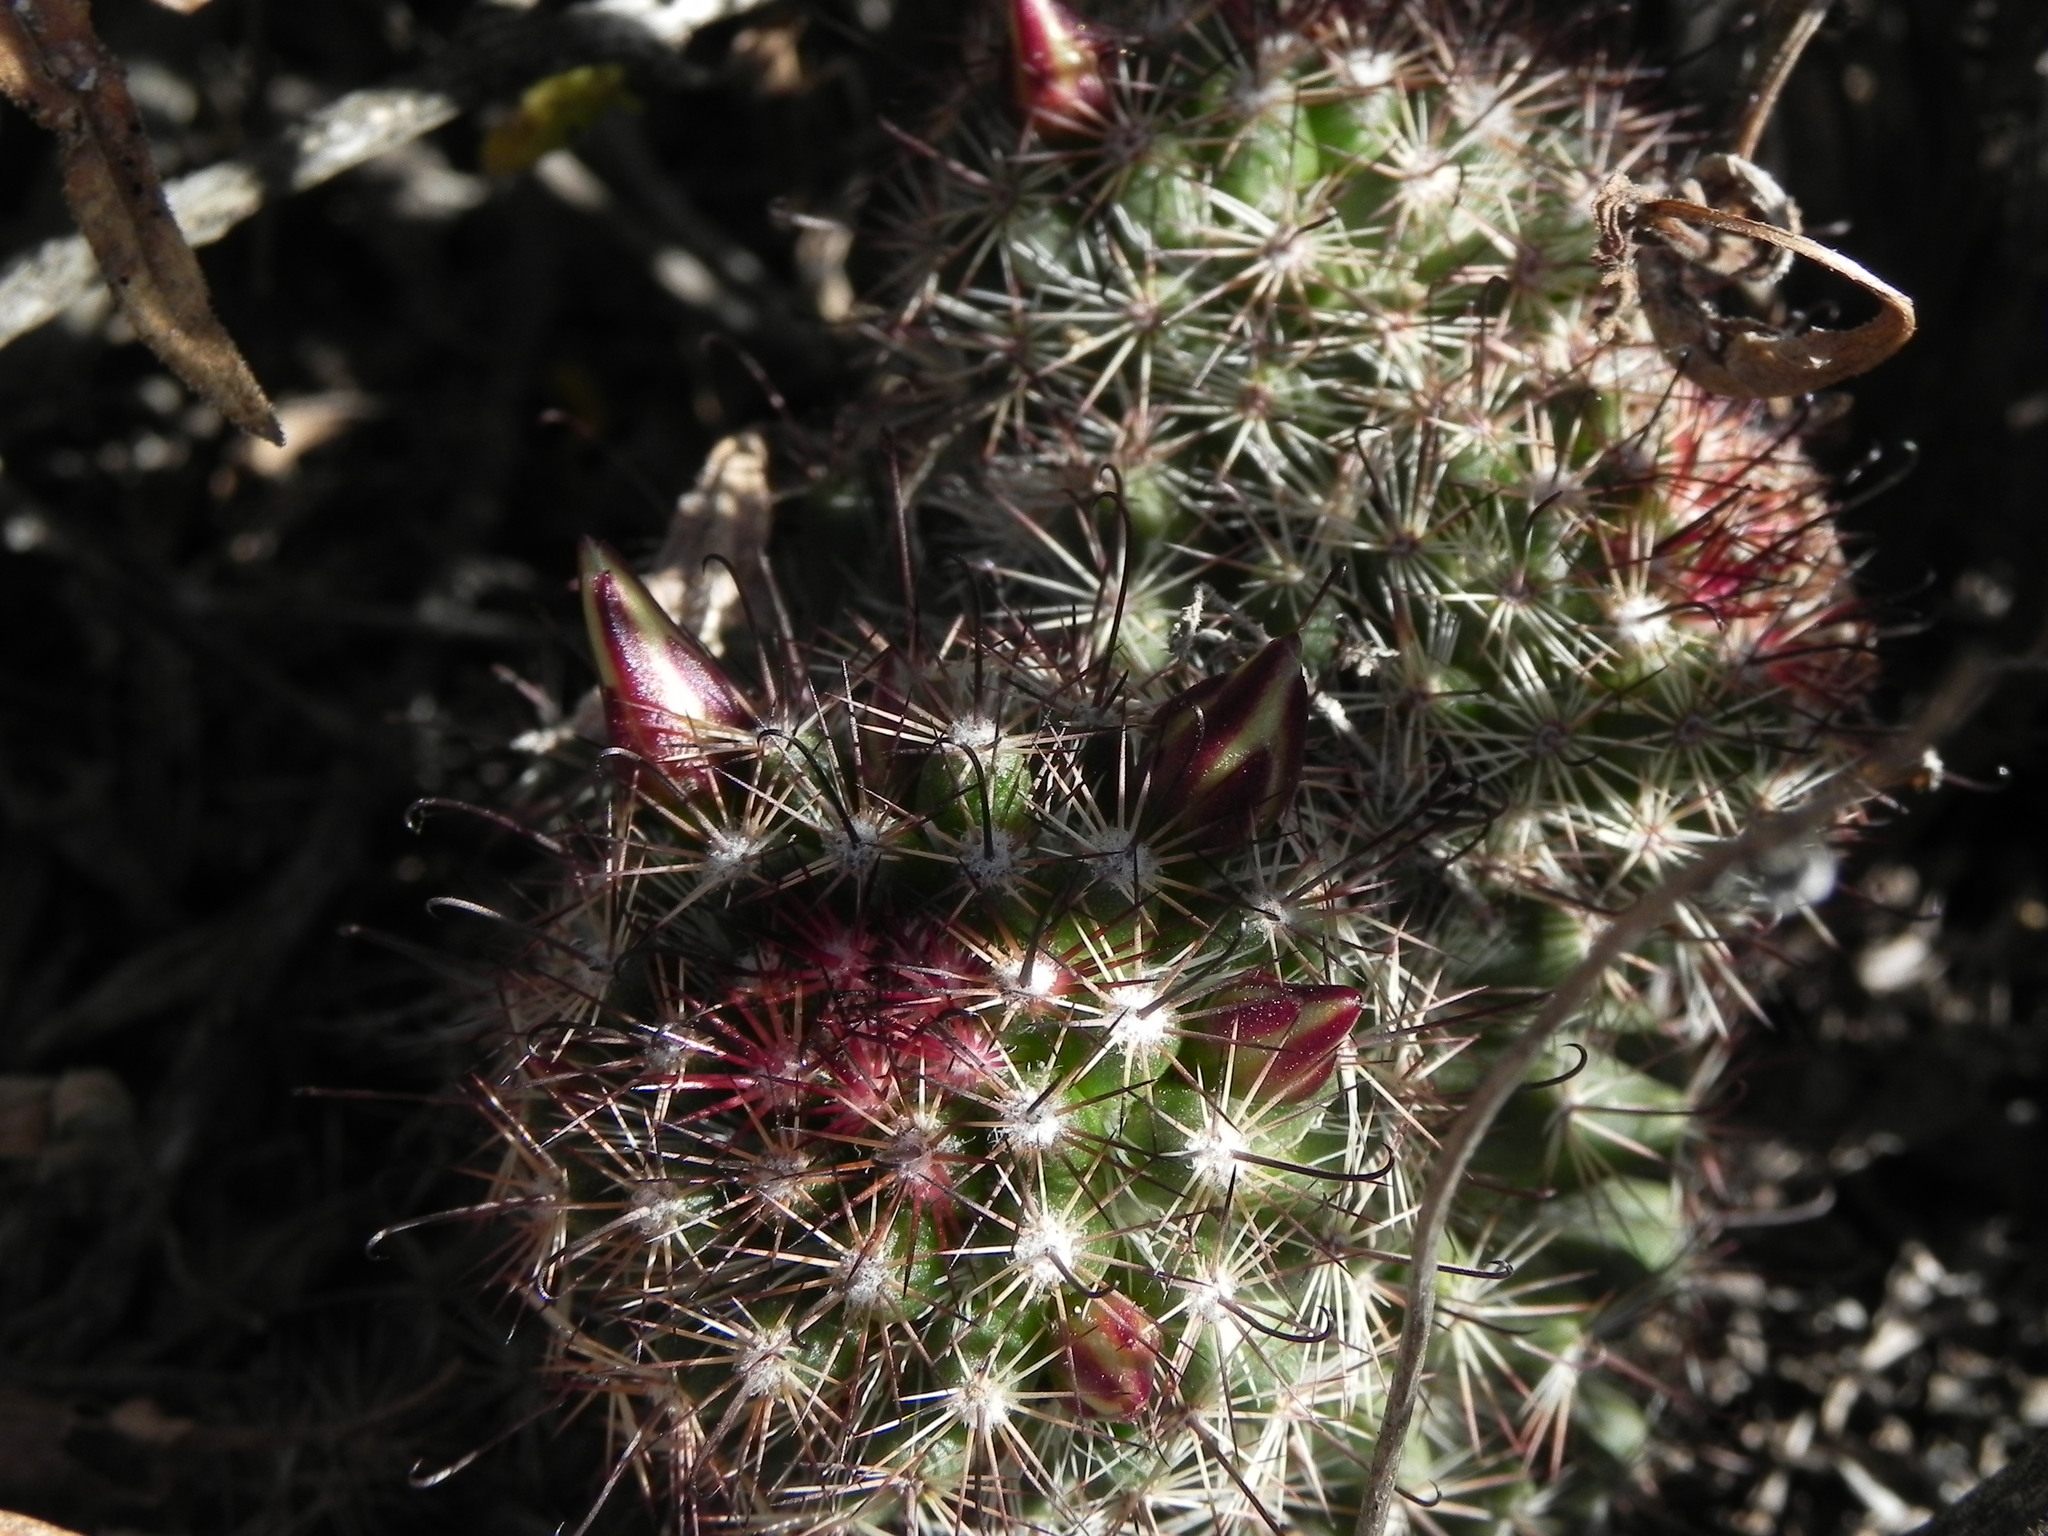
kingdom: Plantae
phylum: Tracheophyta
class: Magnoliopsida
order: Caryophyllales
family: Cactaceae
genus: Cochemiea
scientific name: Cochemiea dioica
